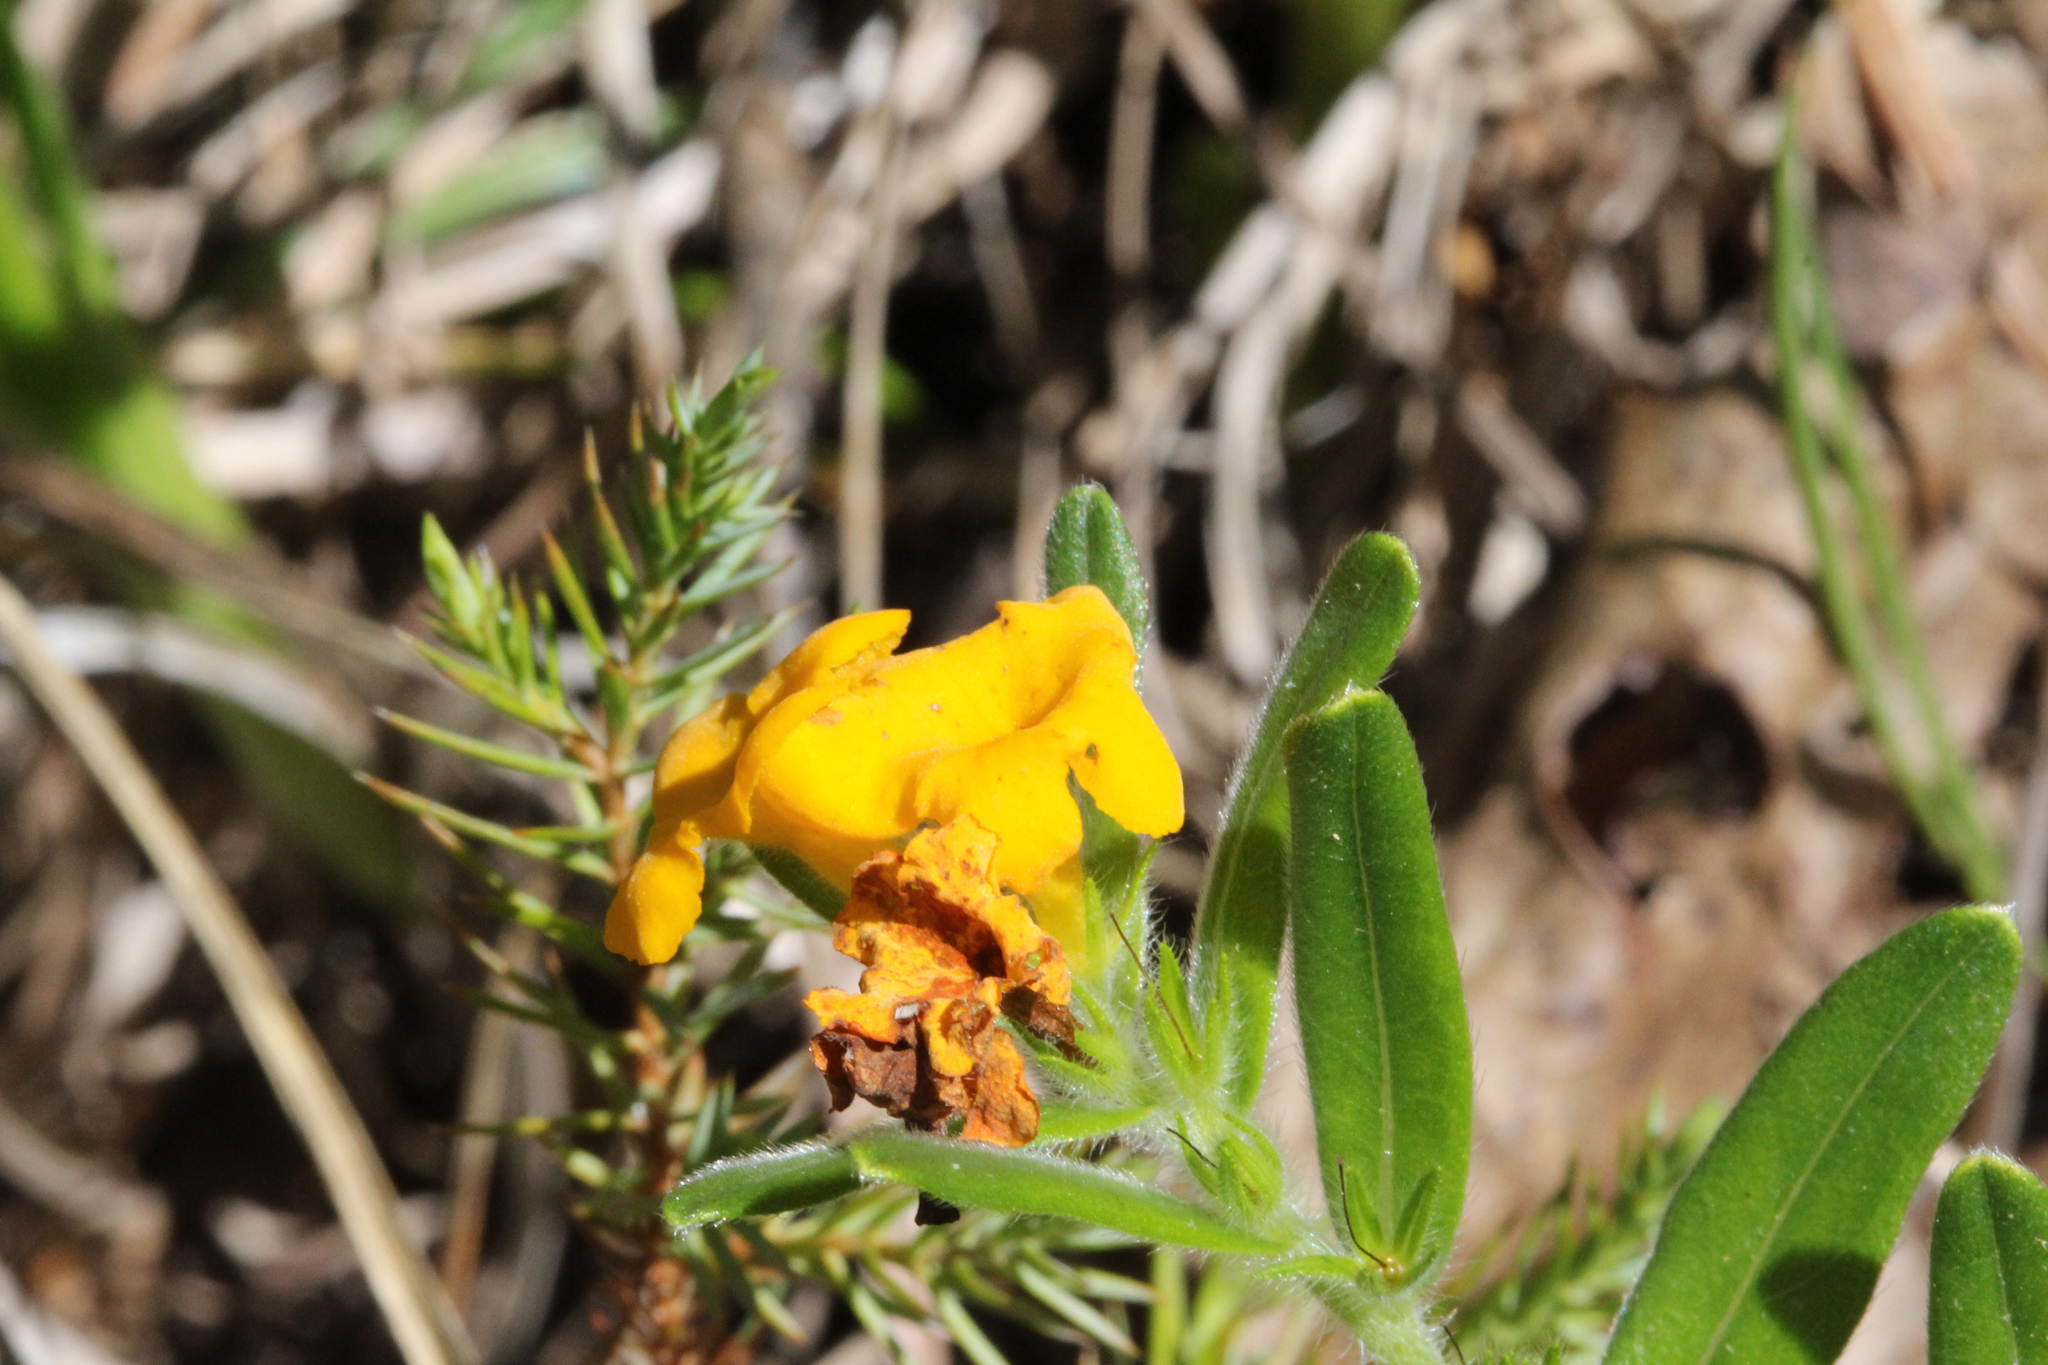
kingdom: Plantae
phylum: Tracheophyta
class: Magnoliopsida
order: Boraginales
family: Boraginaceae
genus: Lithospermum
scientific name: Lithospermum canescens
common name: Hoary puccoon
